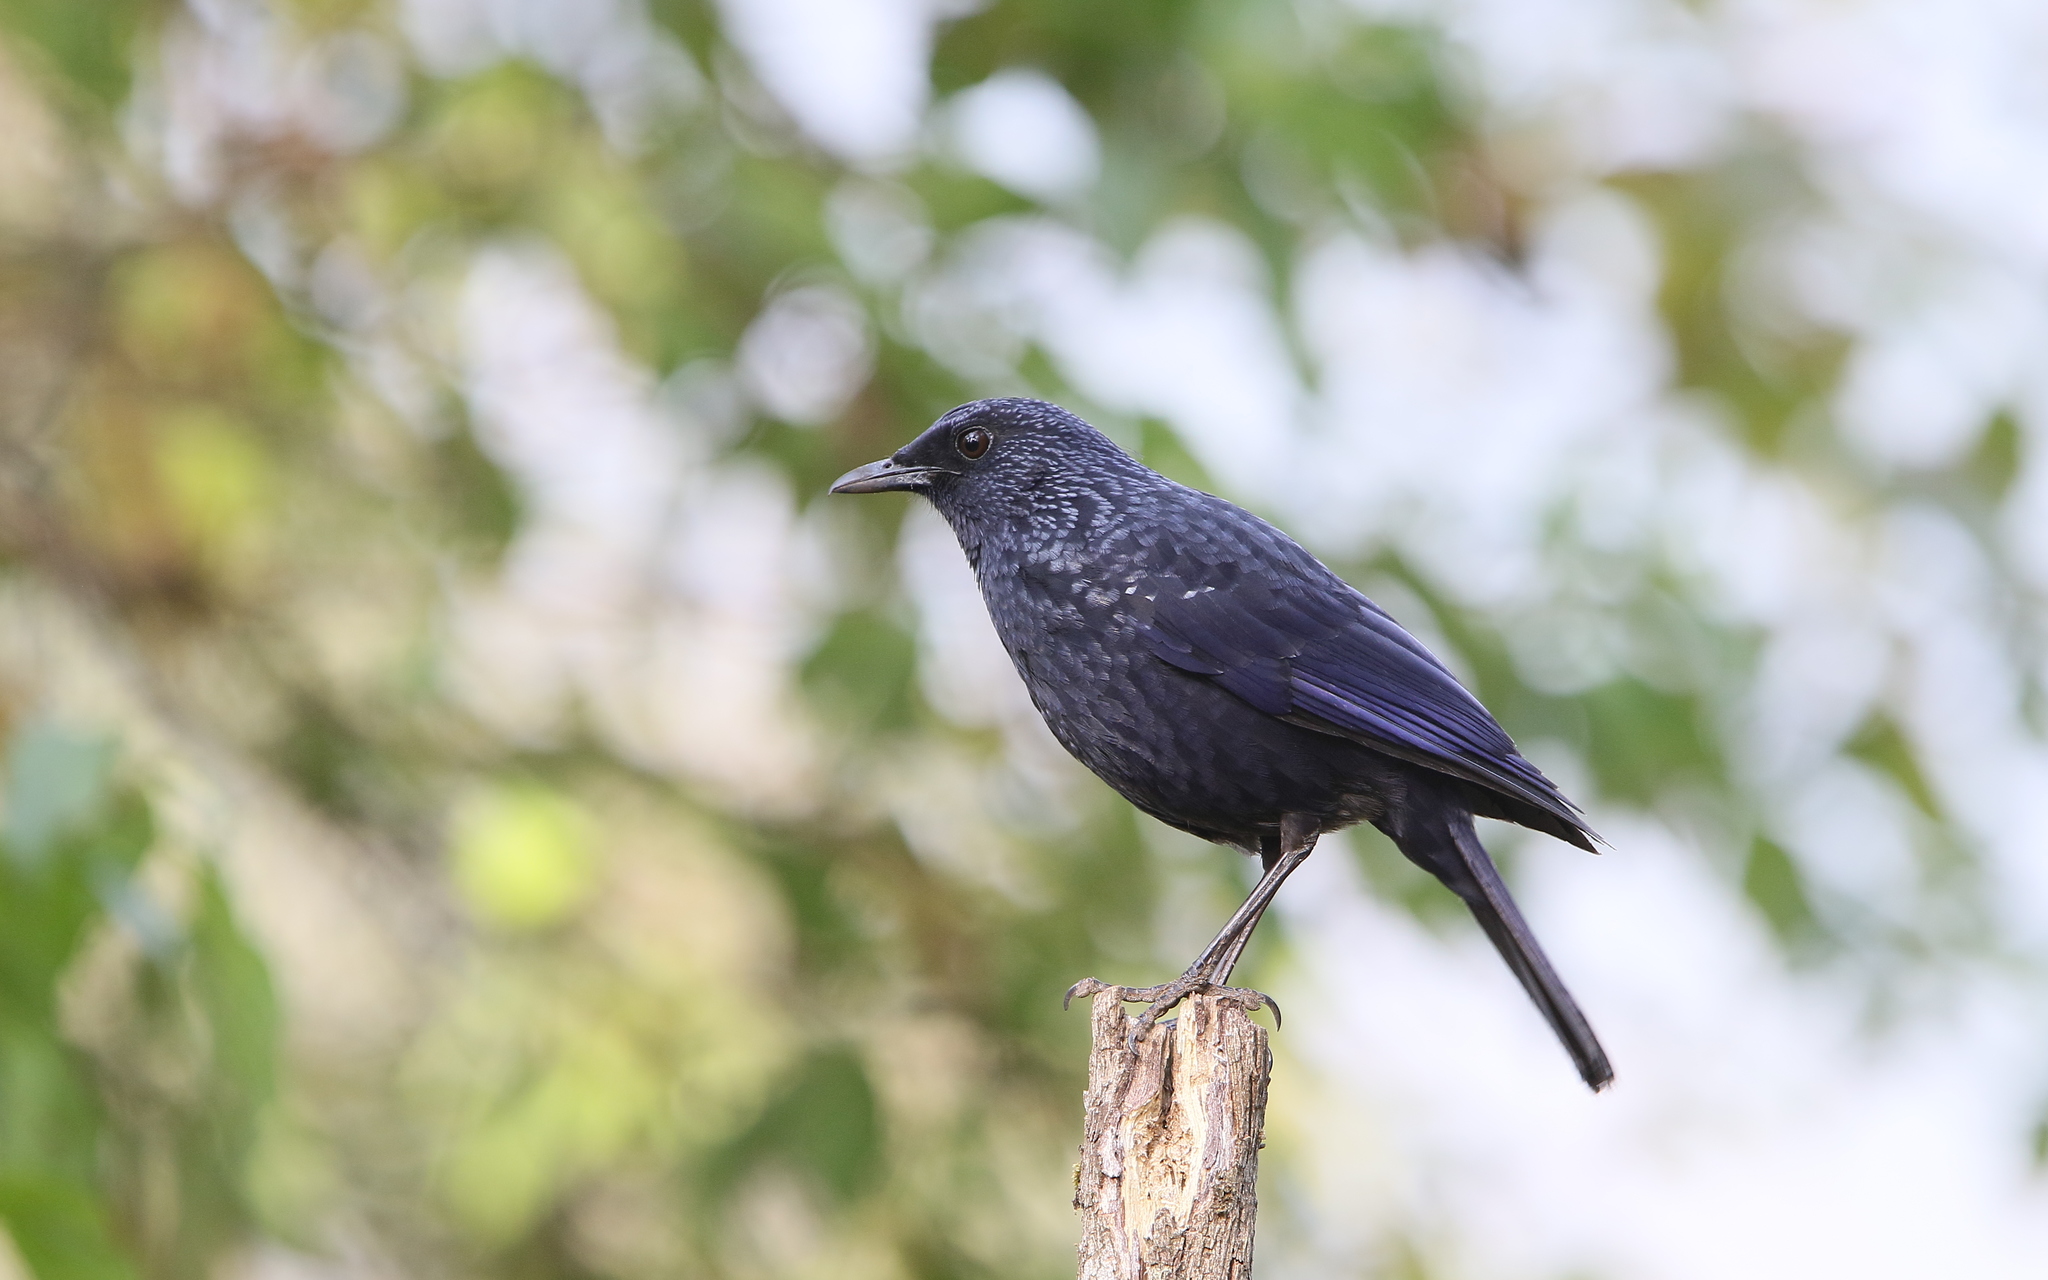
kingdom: Animalia
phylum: Chordata
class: Aves
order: Passeriformes
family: Muscicapidae
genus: Myophonus
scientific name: Myophonus caeruleus
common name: Blue whistling-thrush
